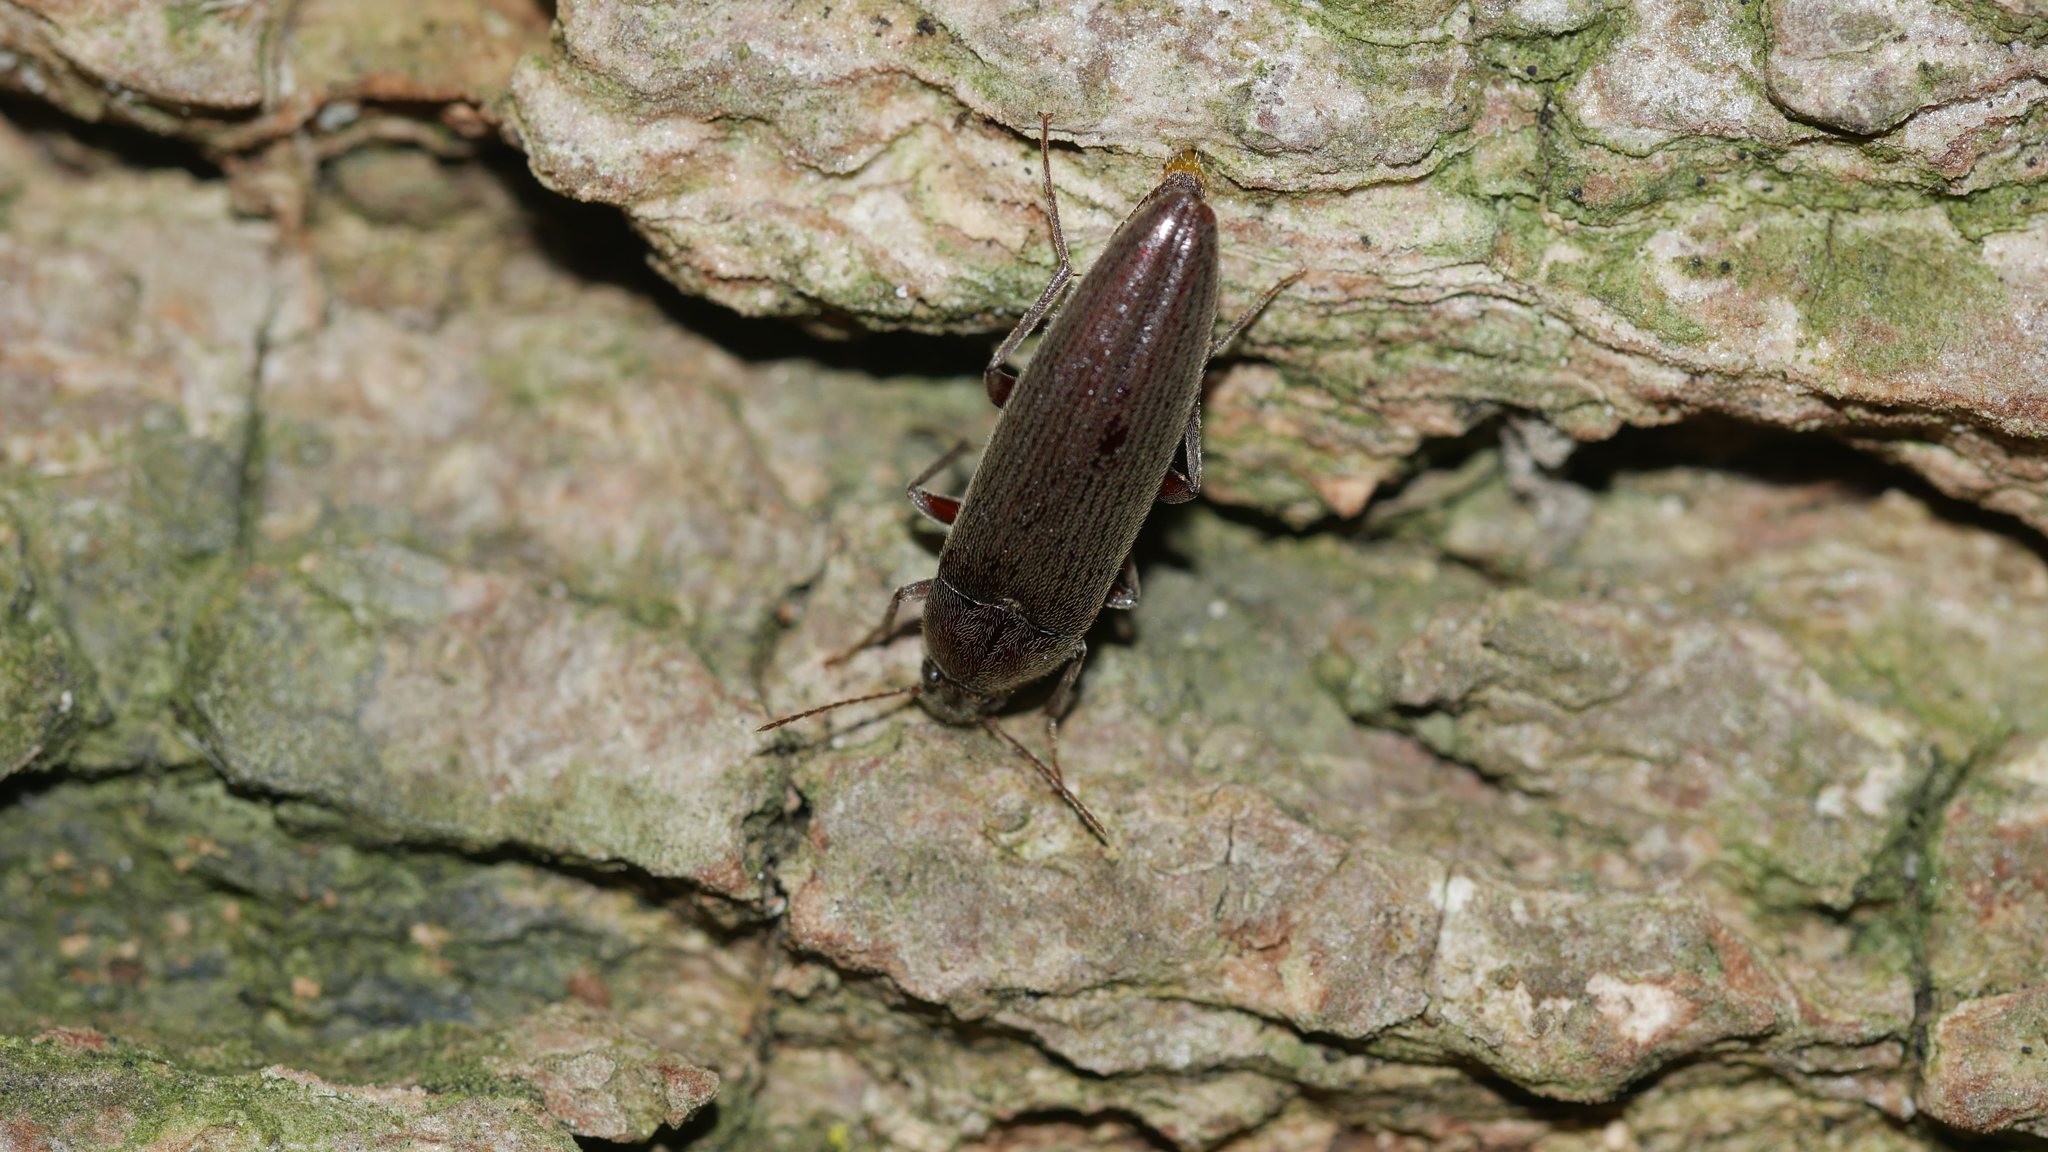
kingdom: Animalia
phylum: Arthropoda
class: Insecta
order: Coleoptera
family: Synchroidae
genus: Synchroa
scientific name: Synchroa punctata
